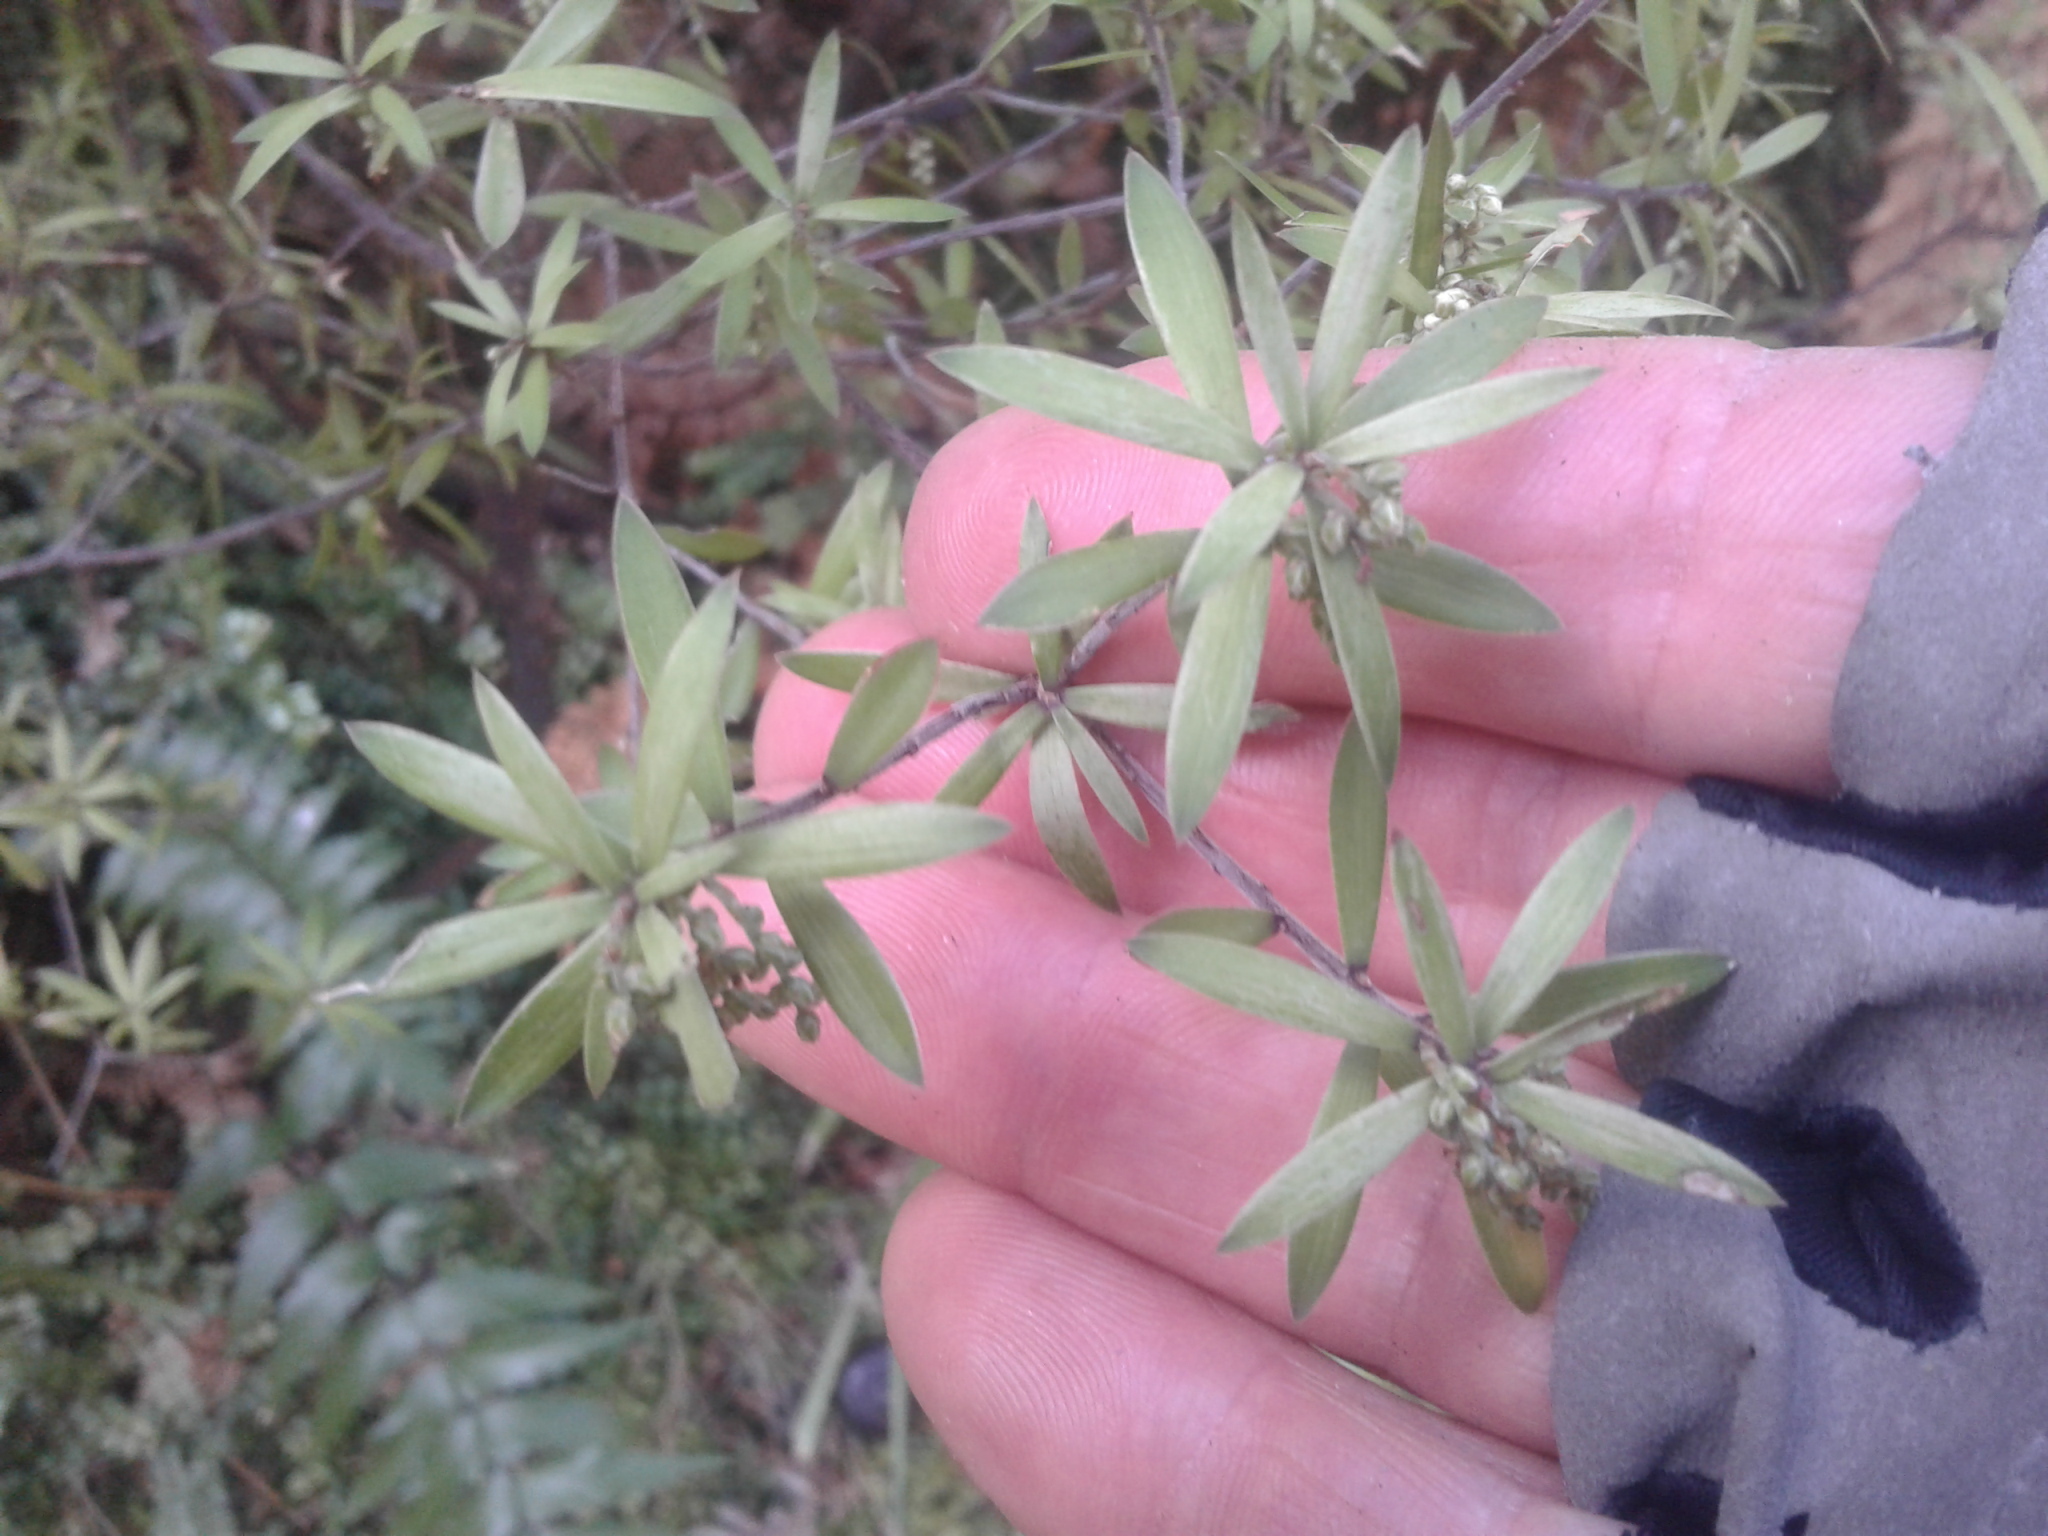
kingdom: Plantae
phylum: Tracheophyta
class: Magnoliopsida
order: Ericales
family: Ericaceae
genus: Leucopogon
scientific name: Leucopogon fasciculatus
